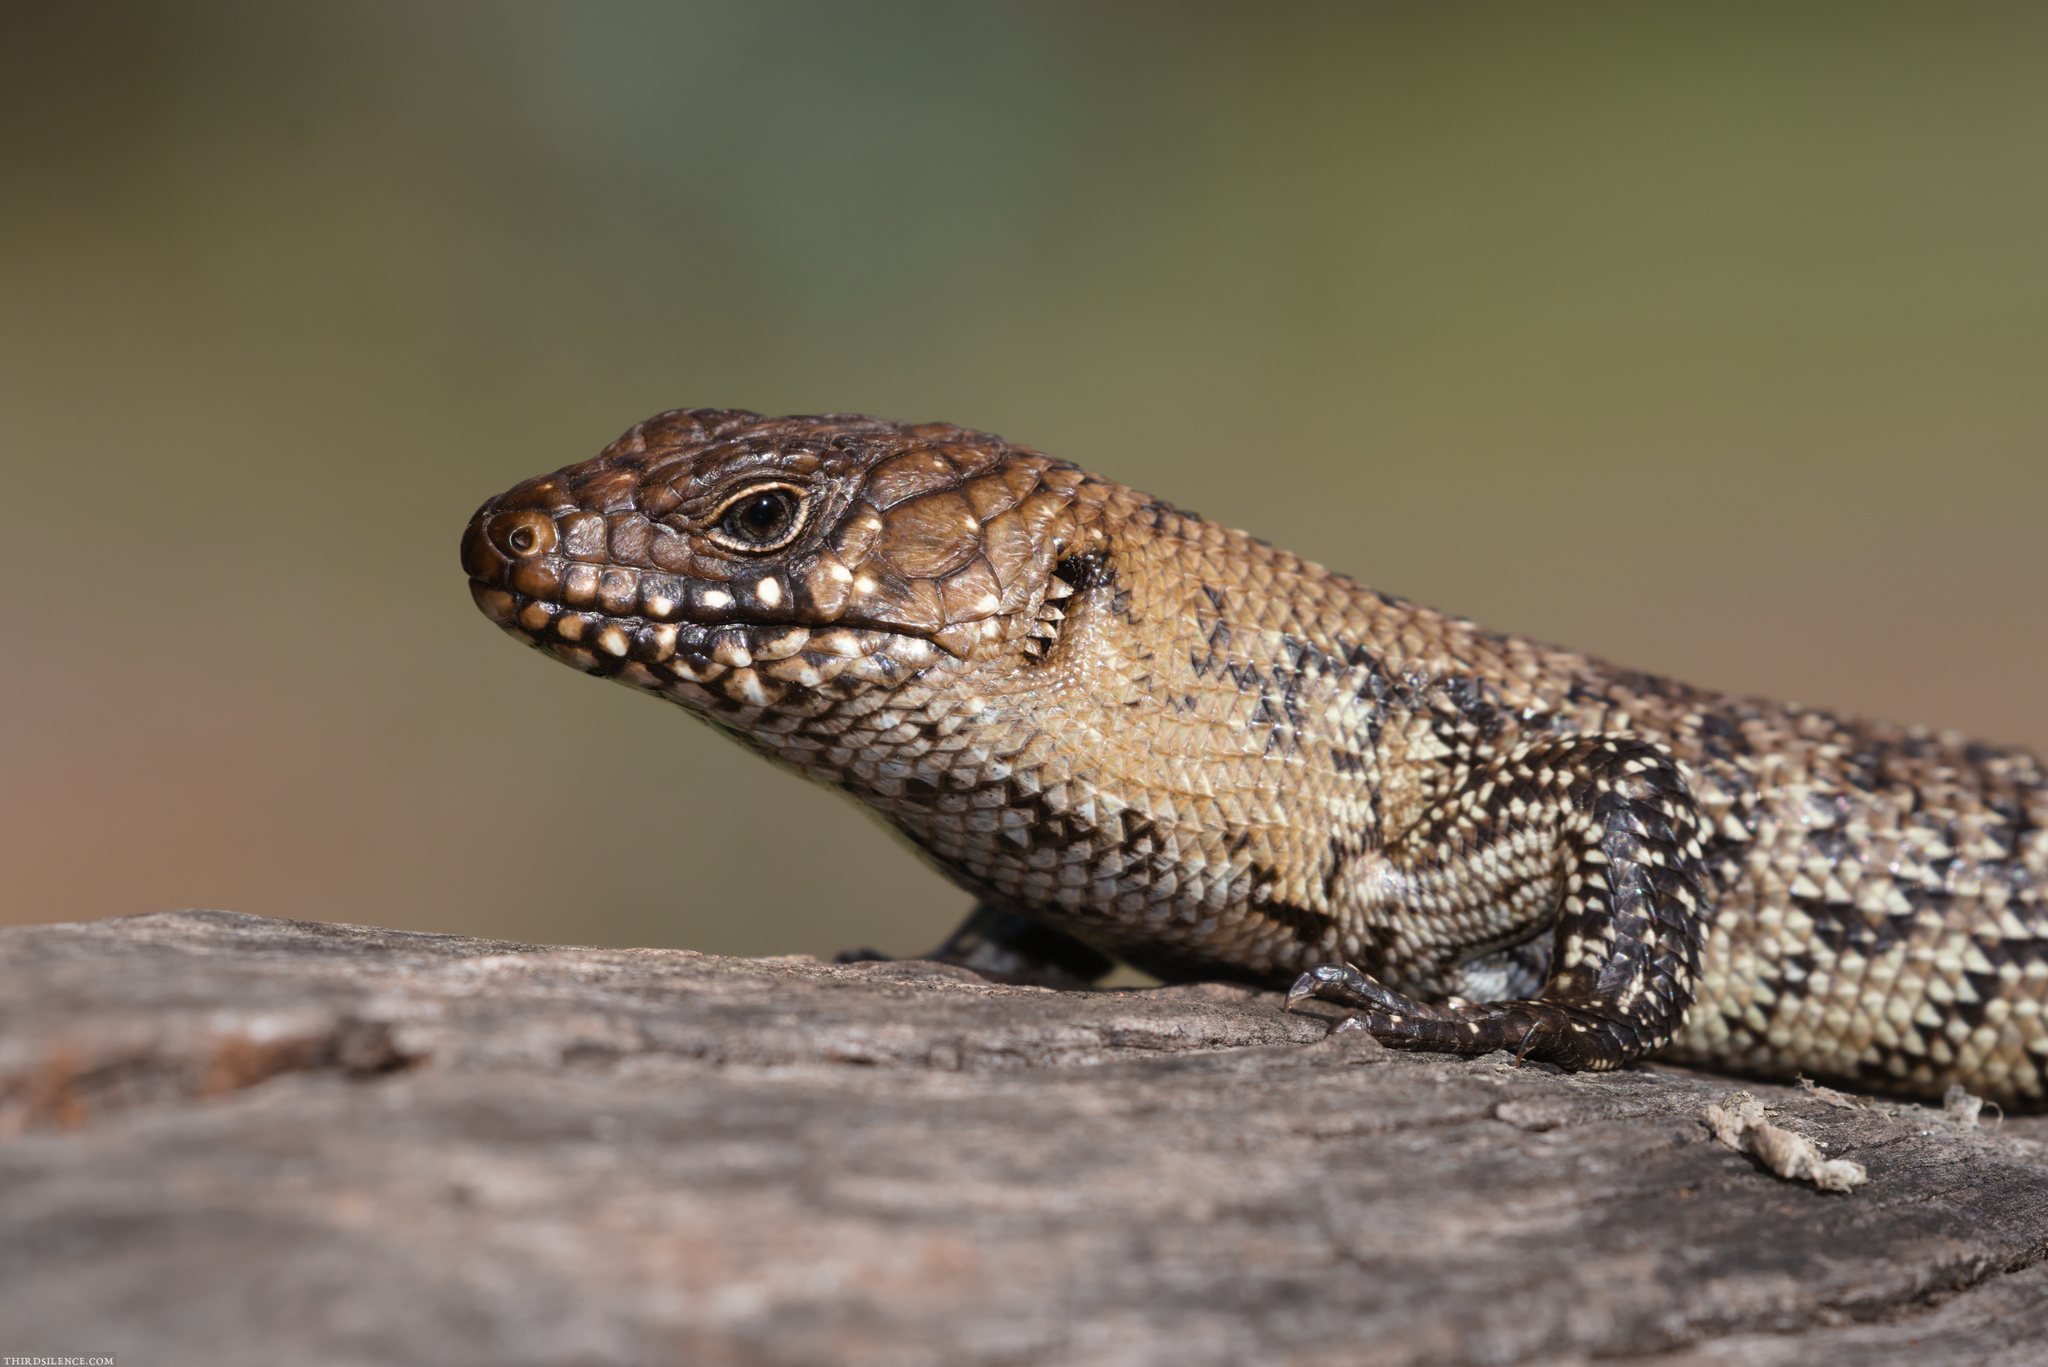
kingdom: Animalia
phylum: Chordata
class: Squamata
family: Scincidae
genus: Egernia
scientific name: Egernia cunninghami
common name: Cunningham's skink
